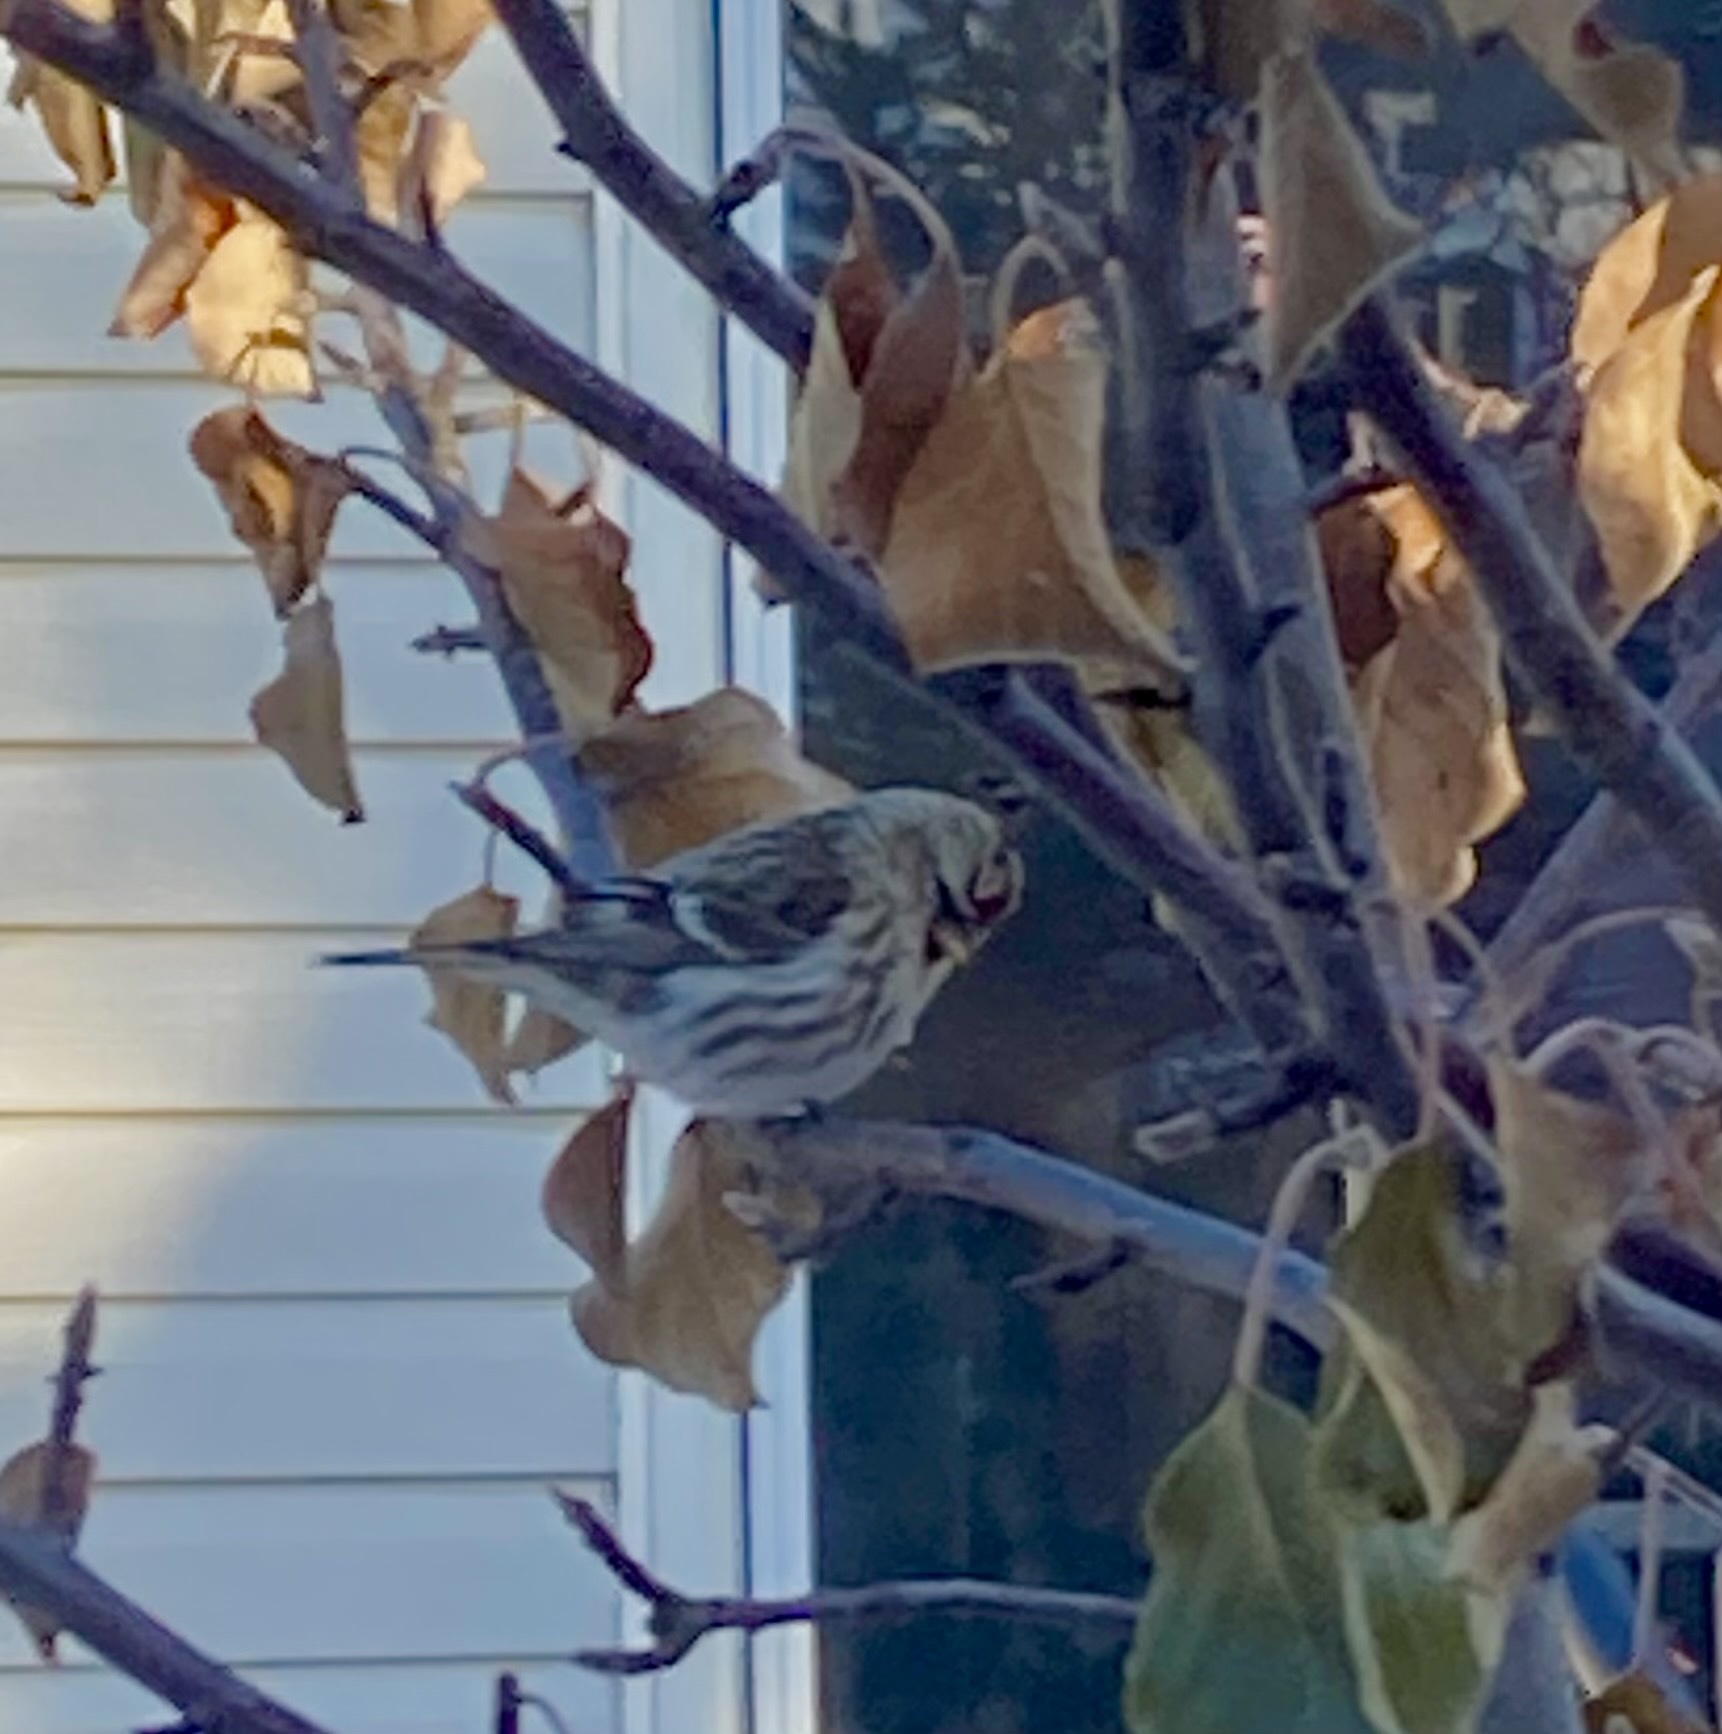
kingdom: Animalia
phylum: Chordata
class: Aves
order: Passeriformes
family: Fringillidae
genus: Acanthis
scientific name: Acanthis flammea
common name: Common redpoll
